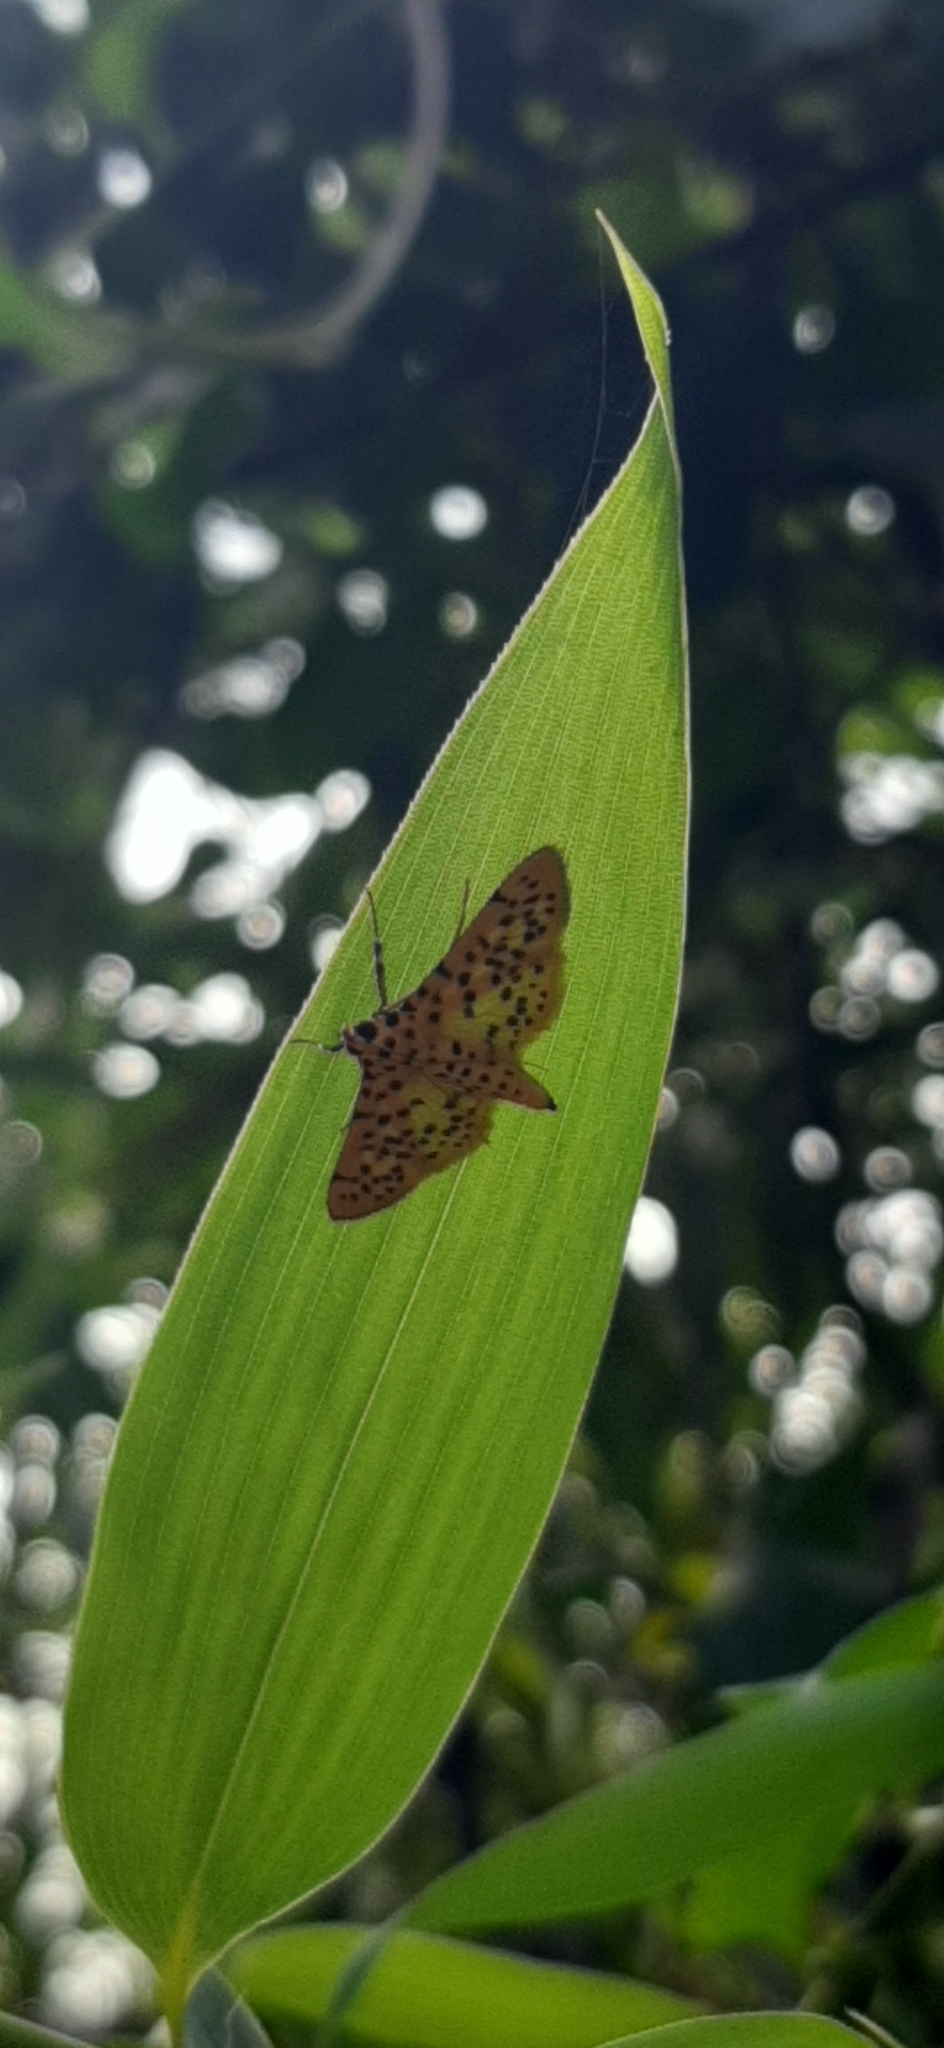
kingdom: Animalia
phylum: Arthropoda
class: Insecta
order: Lepidoptera
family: Crambidae
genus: Conogethes
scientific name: Conogethes punctiferalis
